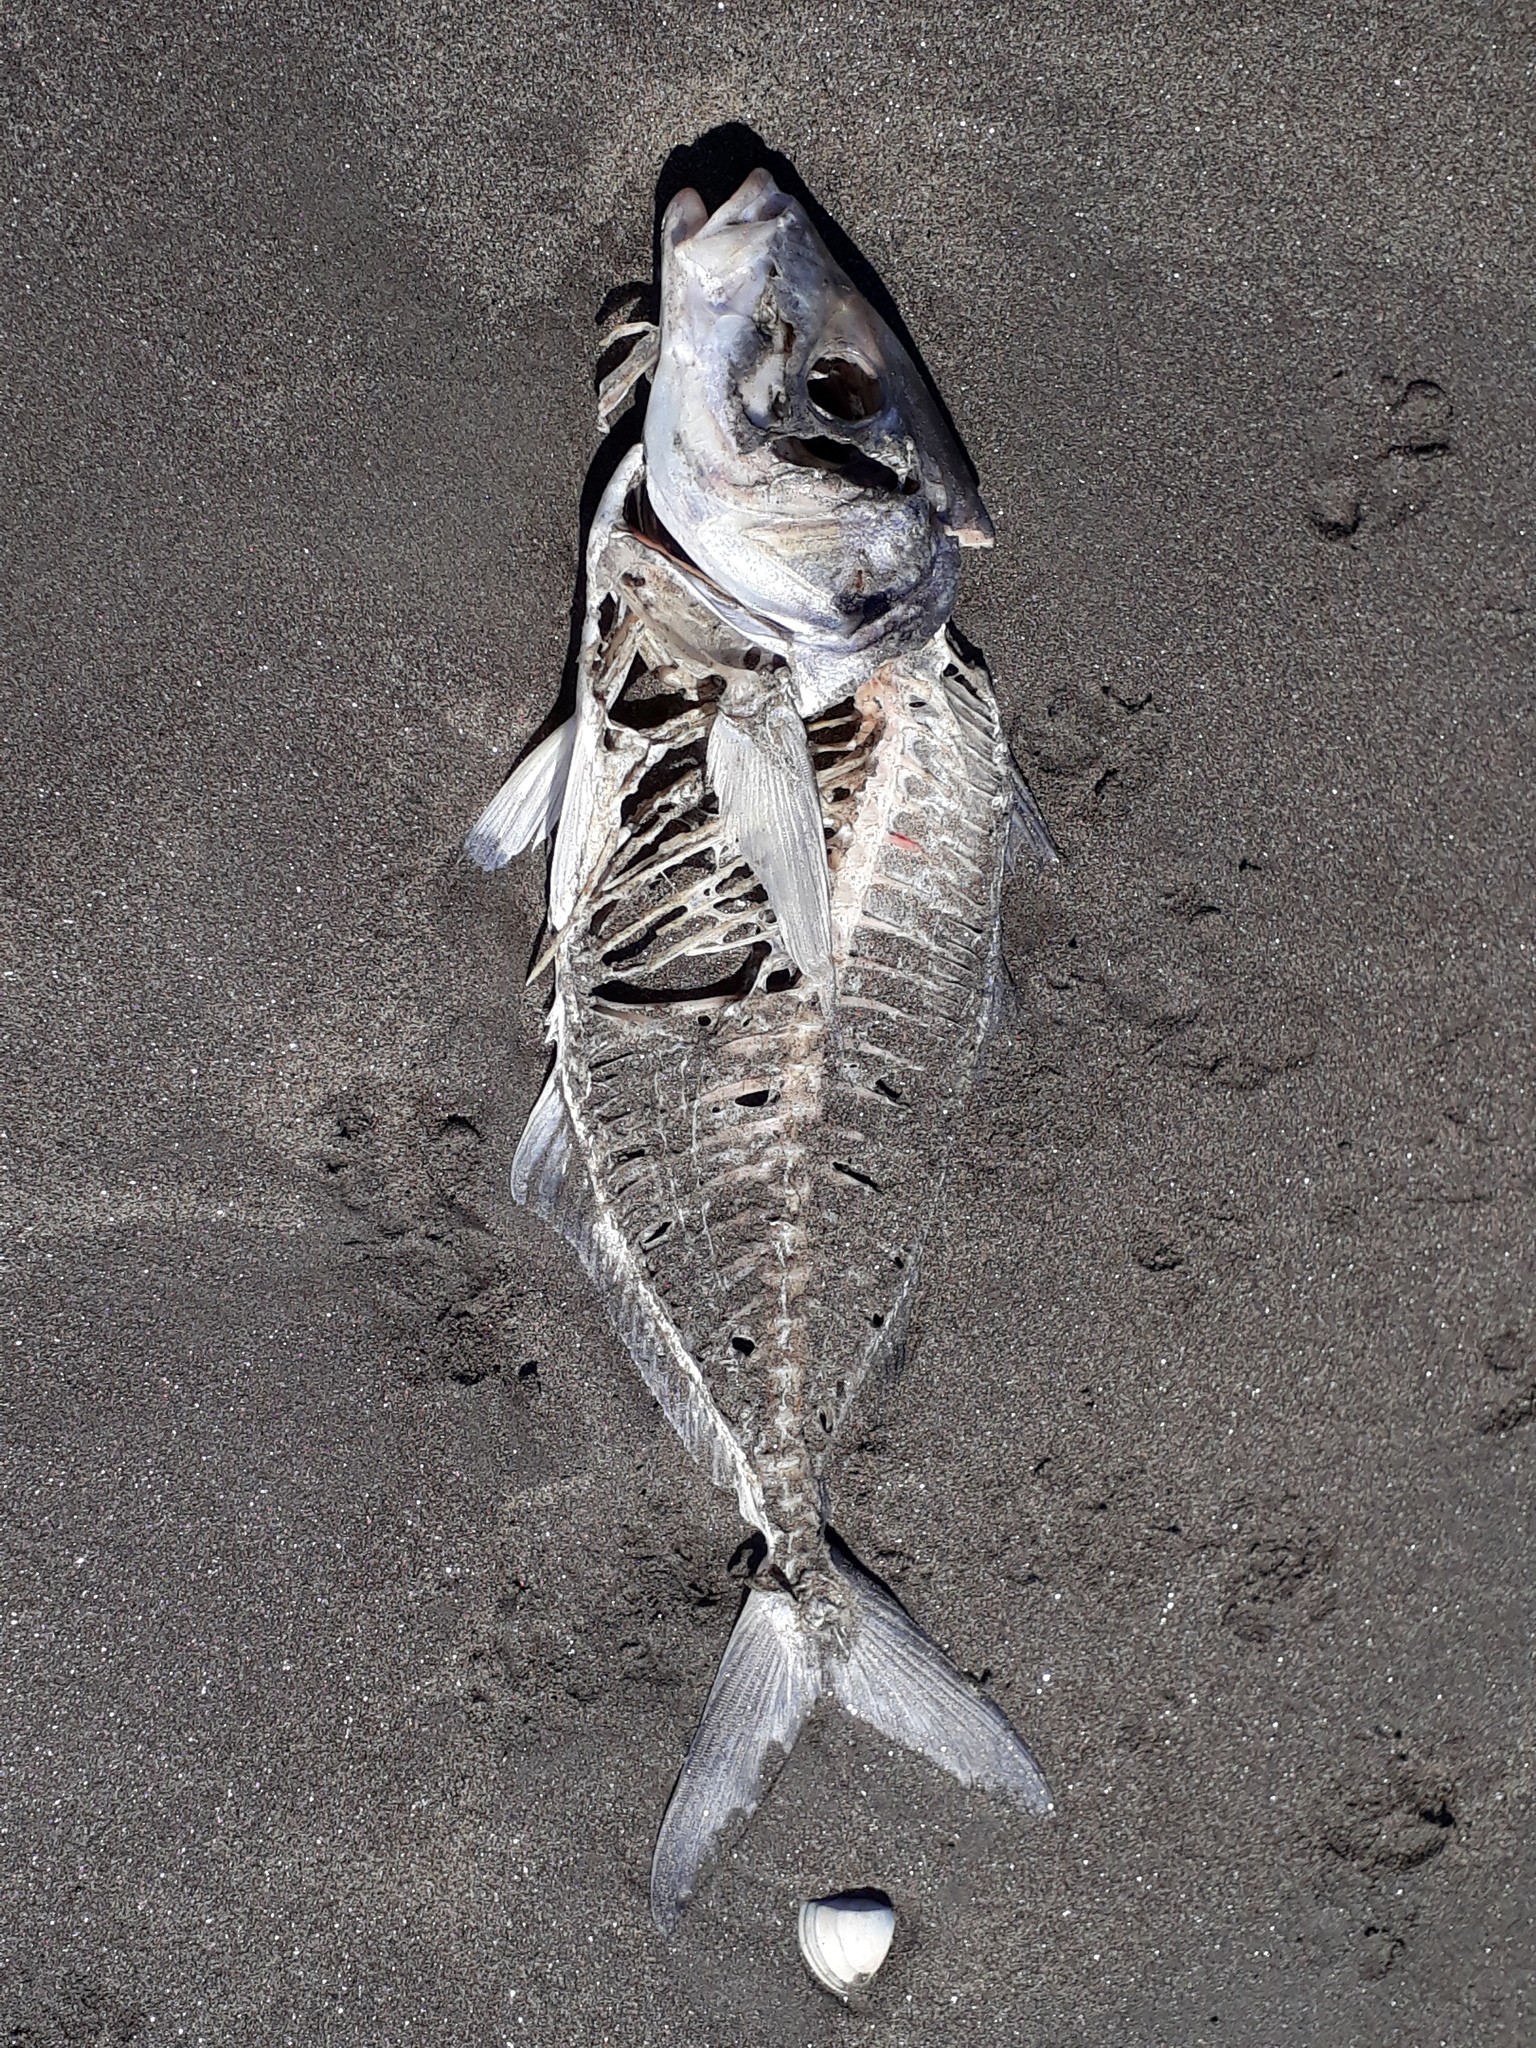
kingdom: Animalia
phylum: Chordata
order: Perciformes
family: Latridae
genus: Latridopsis
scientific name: Latridopsis ciliaris
